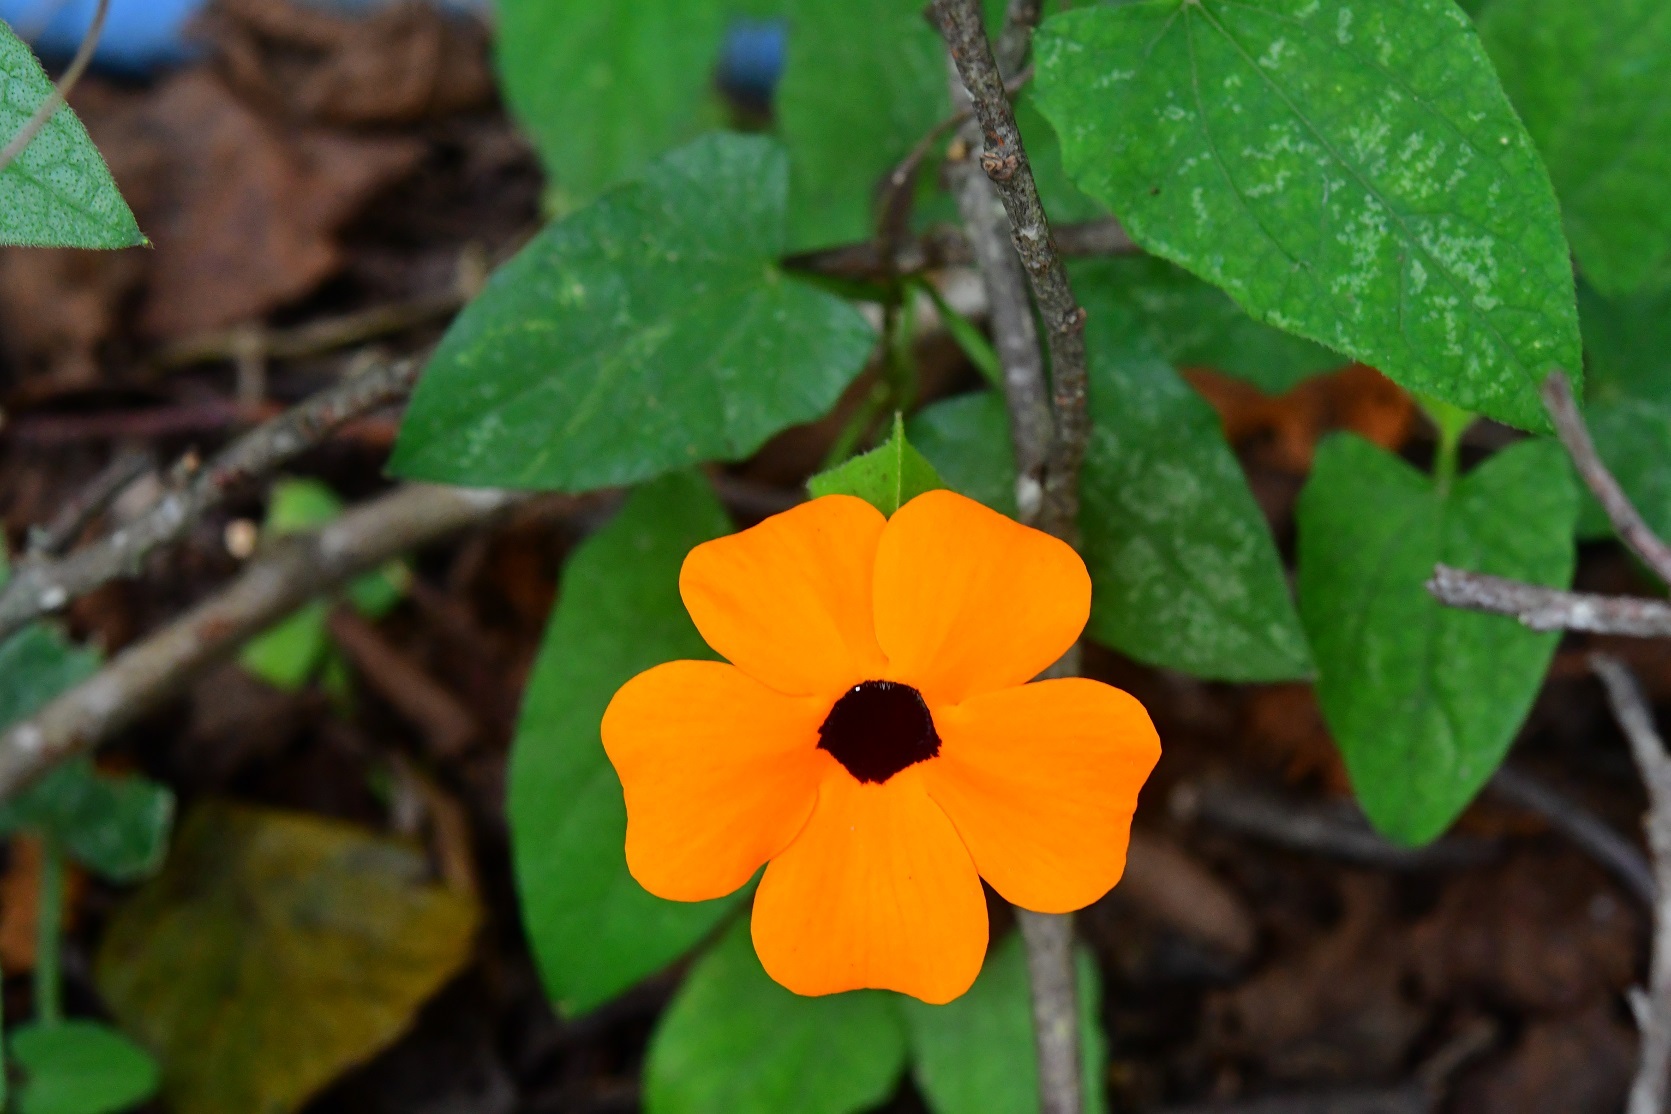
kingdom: Plantae
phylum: Tracheophyta
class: Magnoliopsida
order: Lamiales
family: Acanthaceae
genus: Thunbergia
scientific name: Thunbergia alata
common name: Blackeyed susan vine
